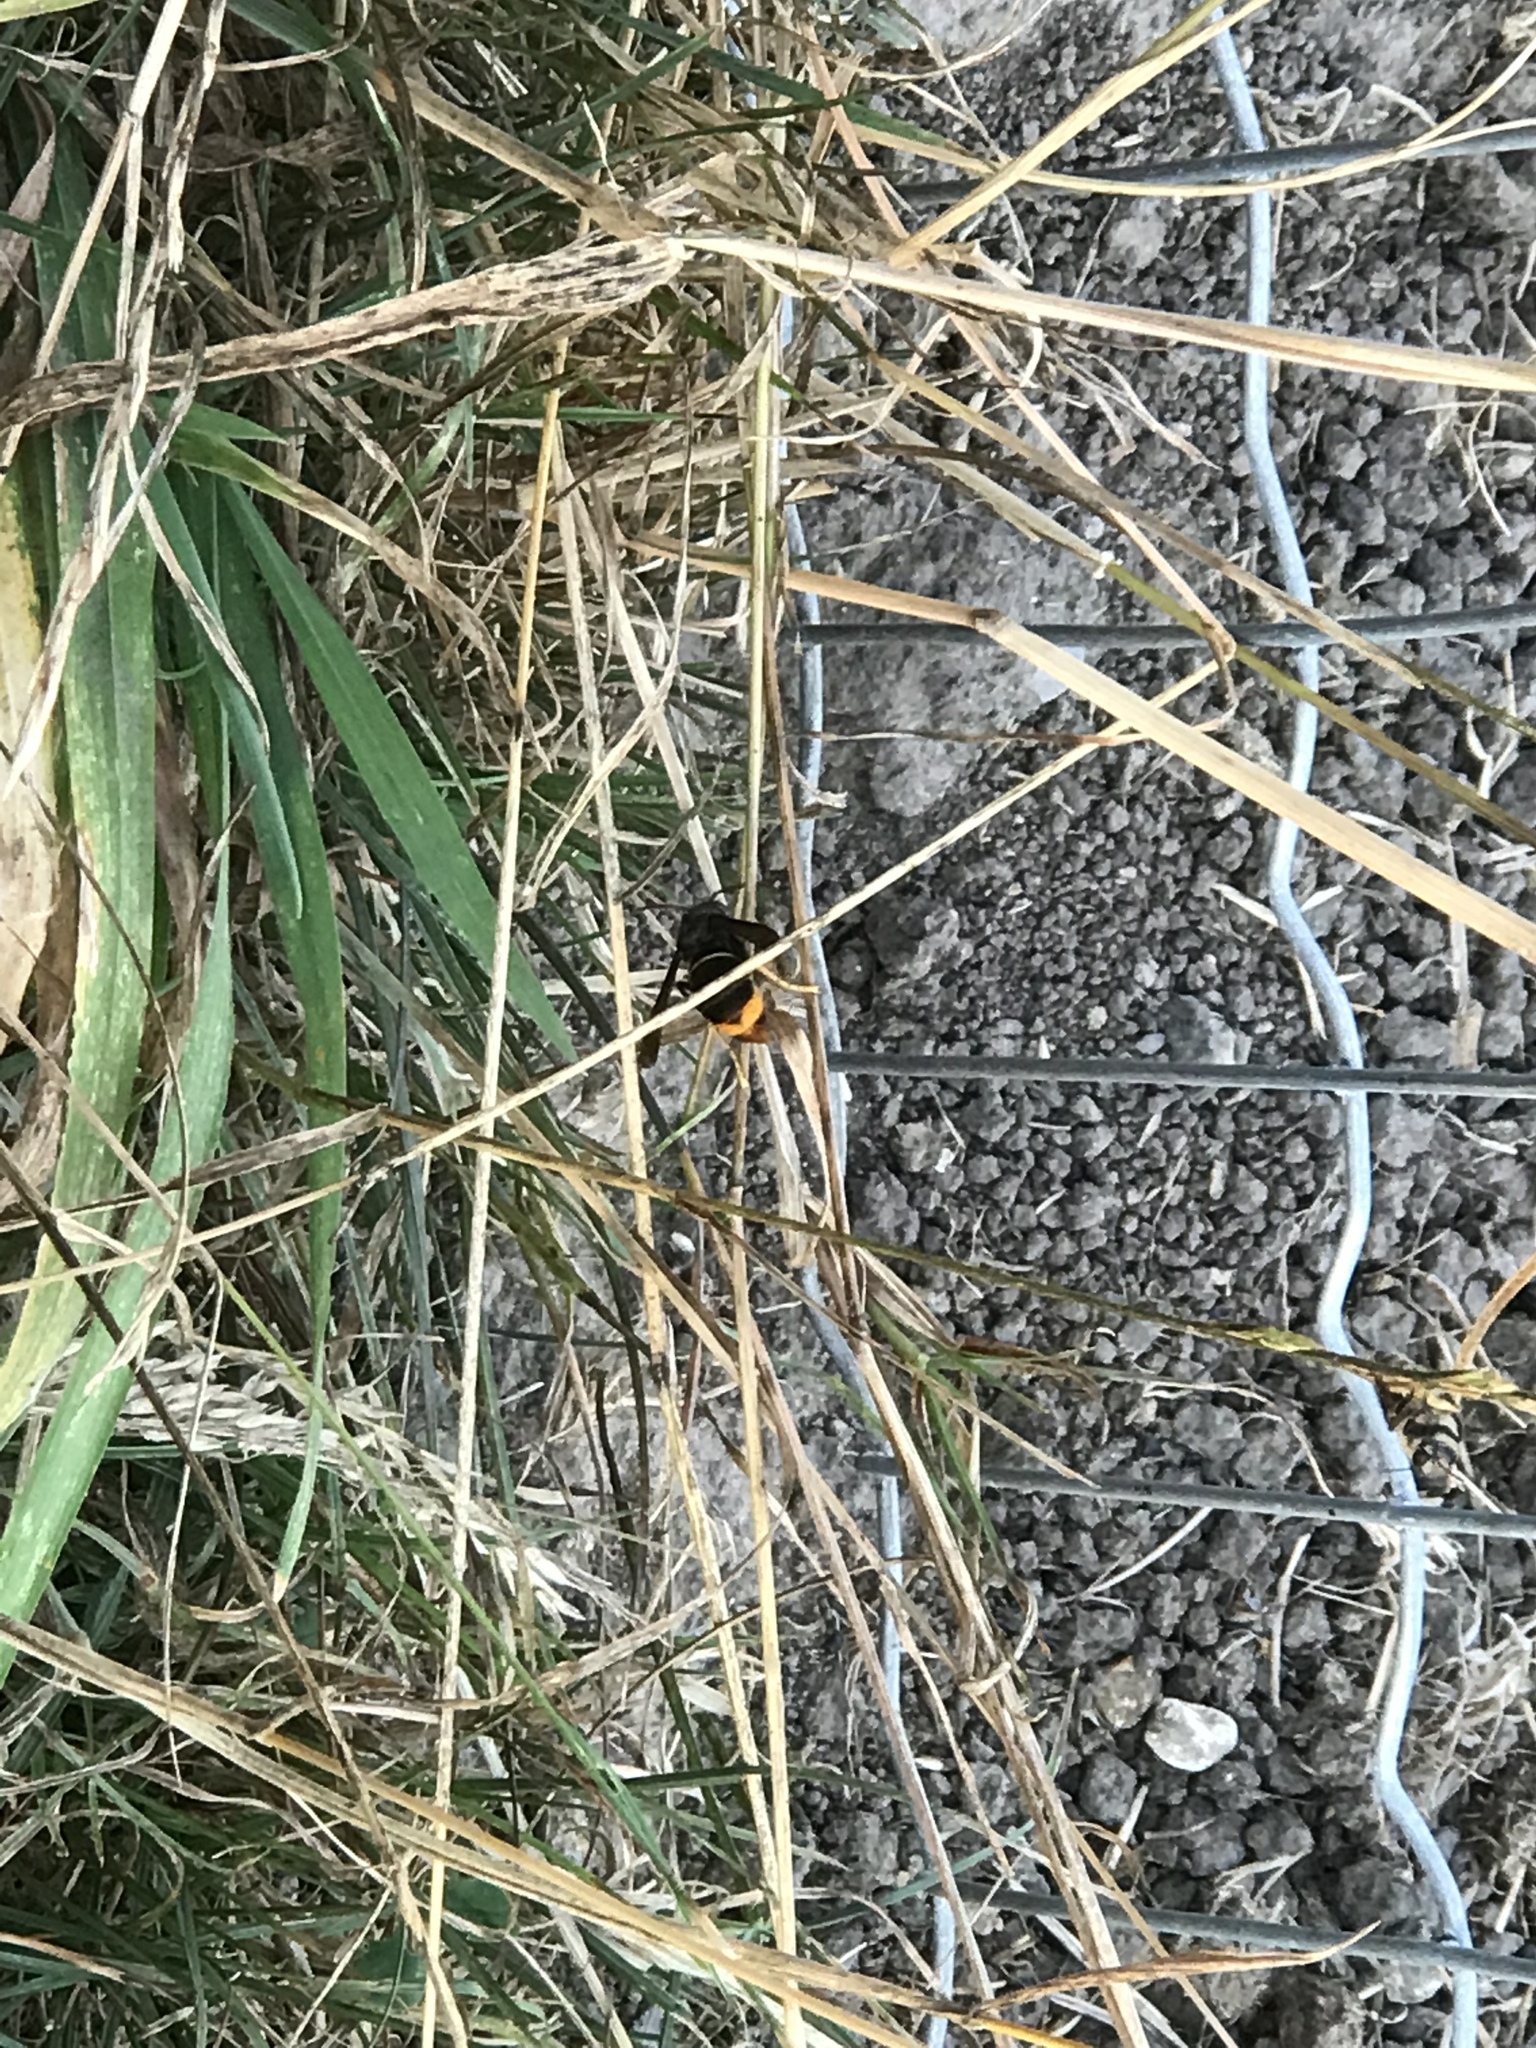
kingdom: Animalia
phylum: Arthropoda
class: Insecta
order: Hymenoptera
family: Vespidae
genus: Vespa
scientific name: Vespa velutina
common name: Asian hornet
